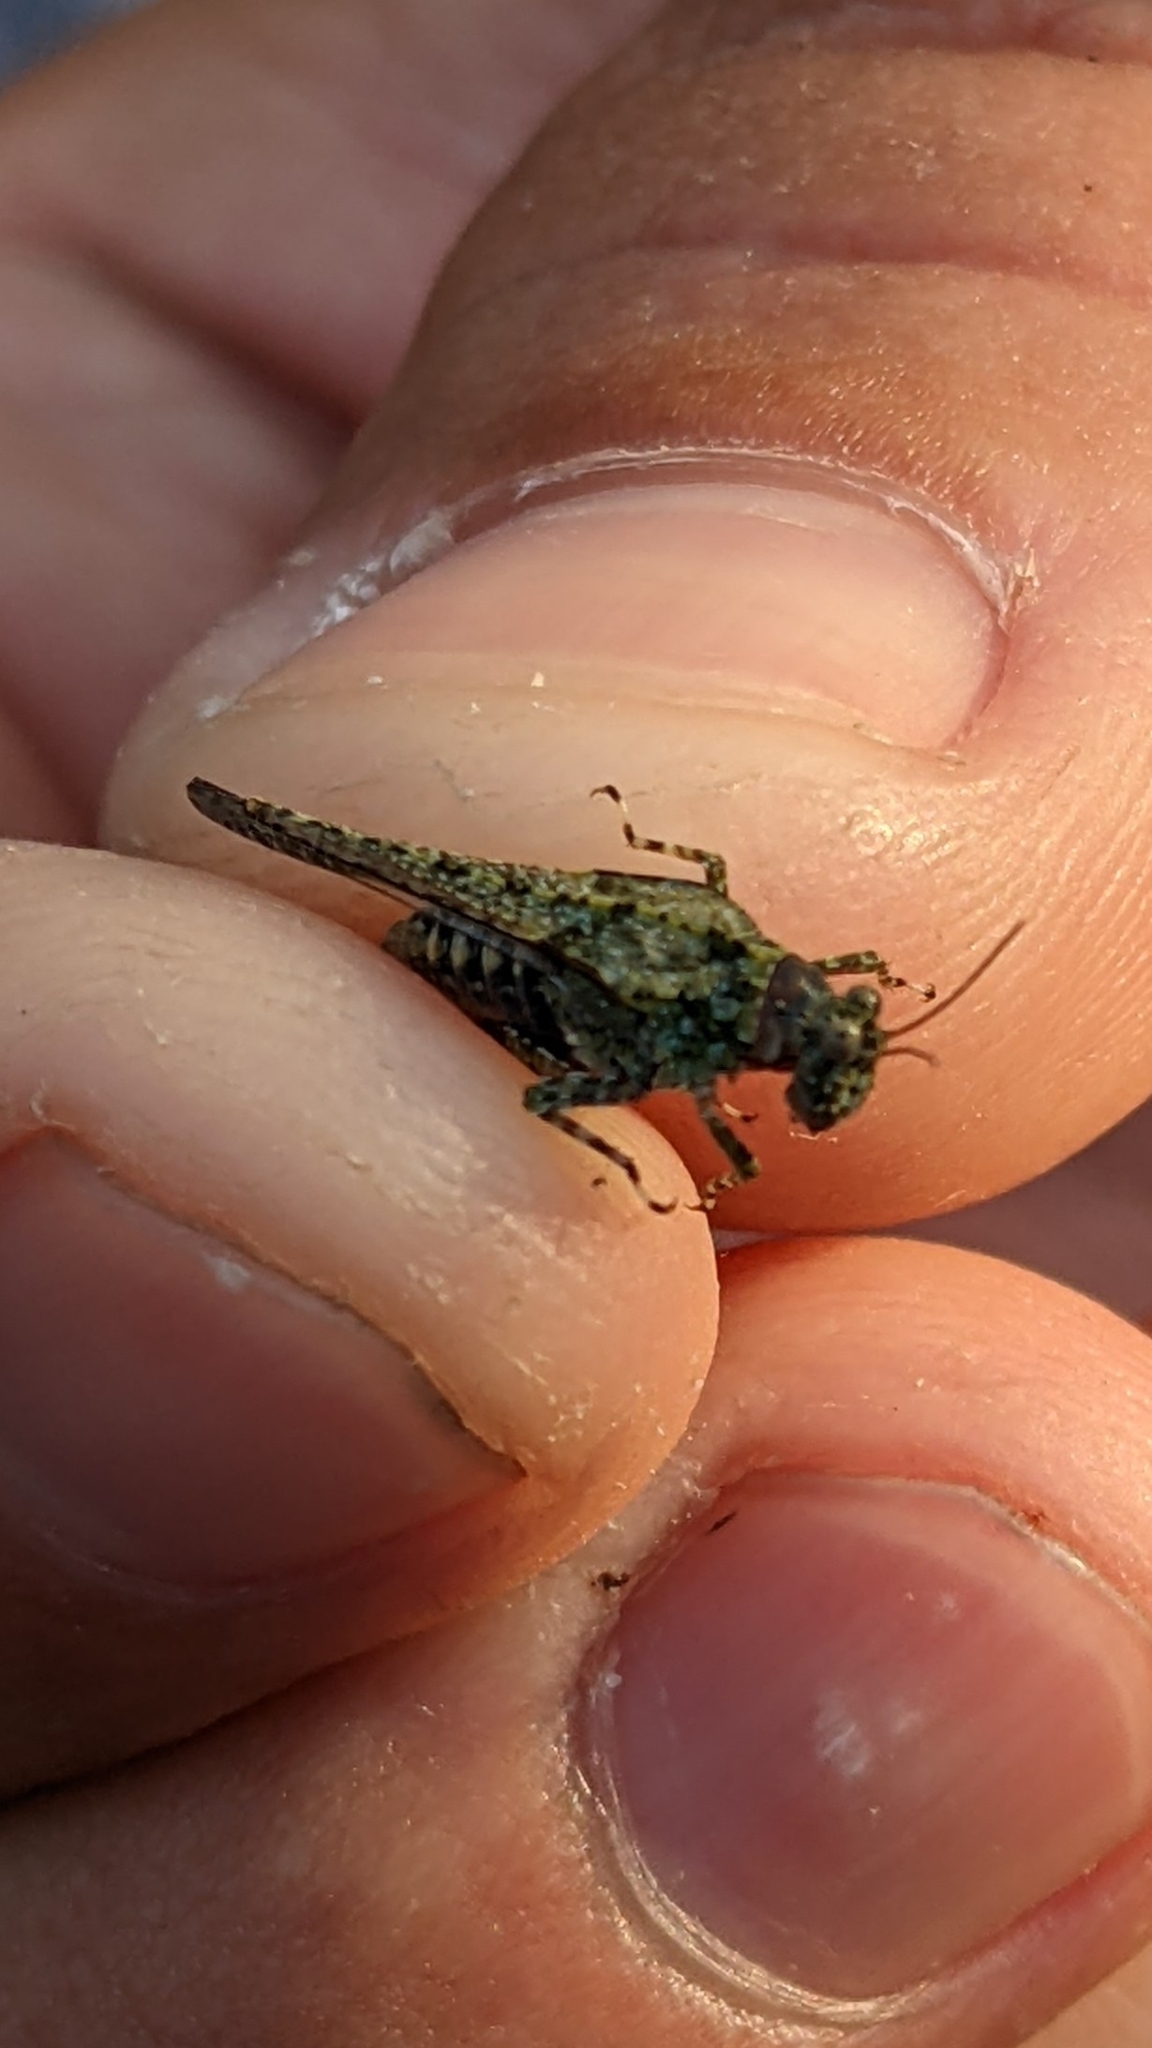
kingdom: Animalia
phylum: Arthropoda
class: Insecta
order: Orthoptera
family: Tetrigidae
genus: Paratettix
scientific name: Paratettix meridionalis
